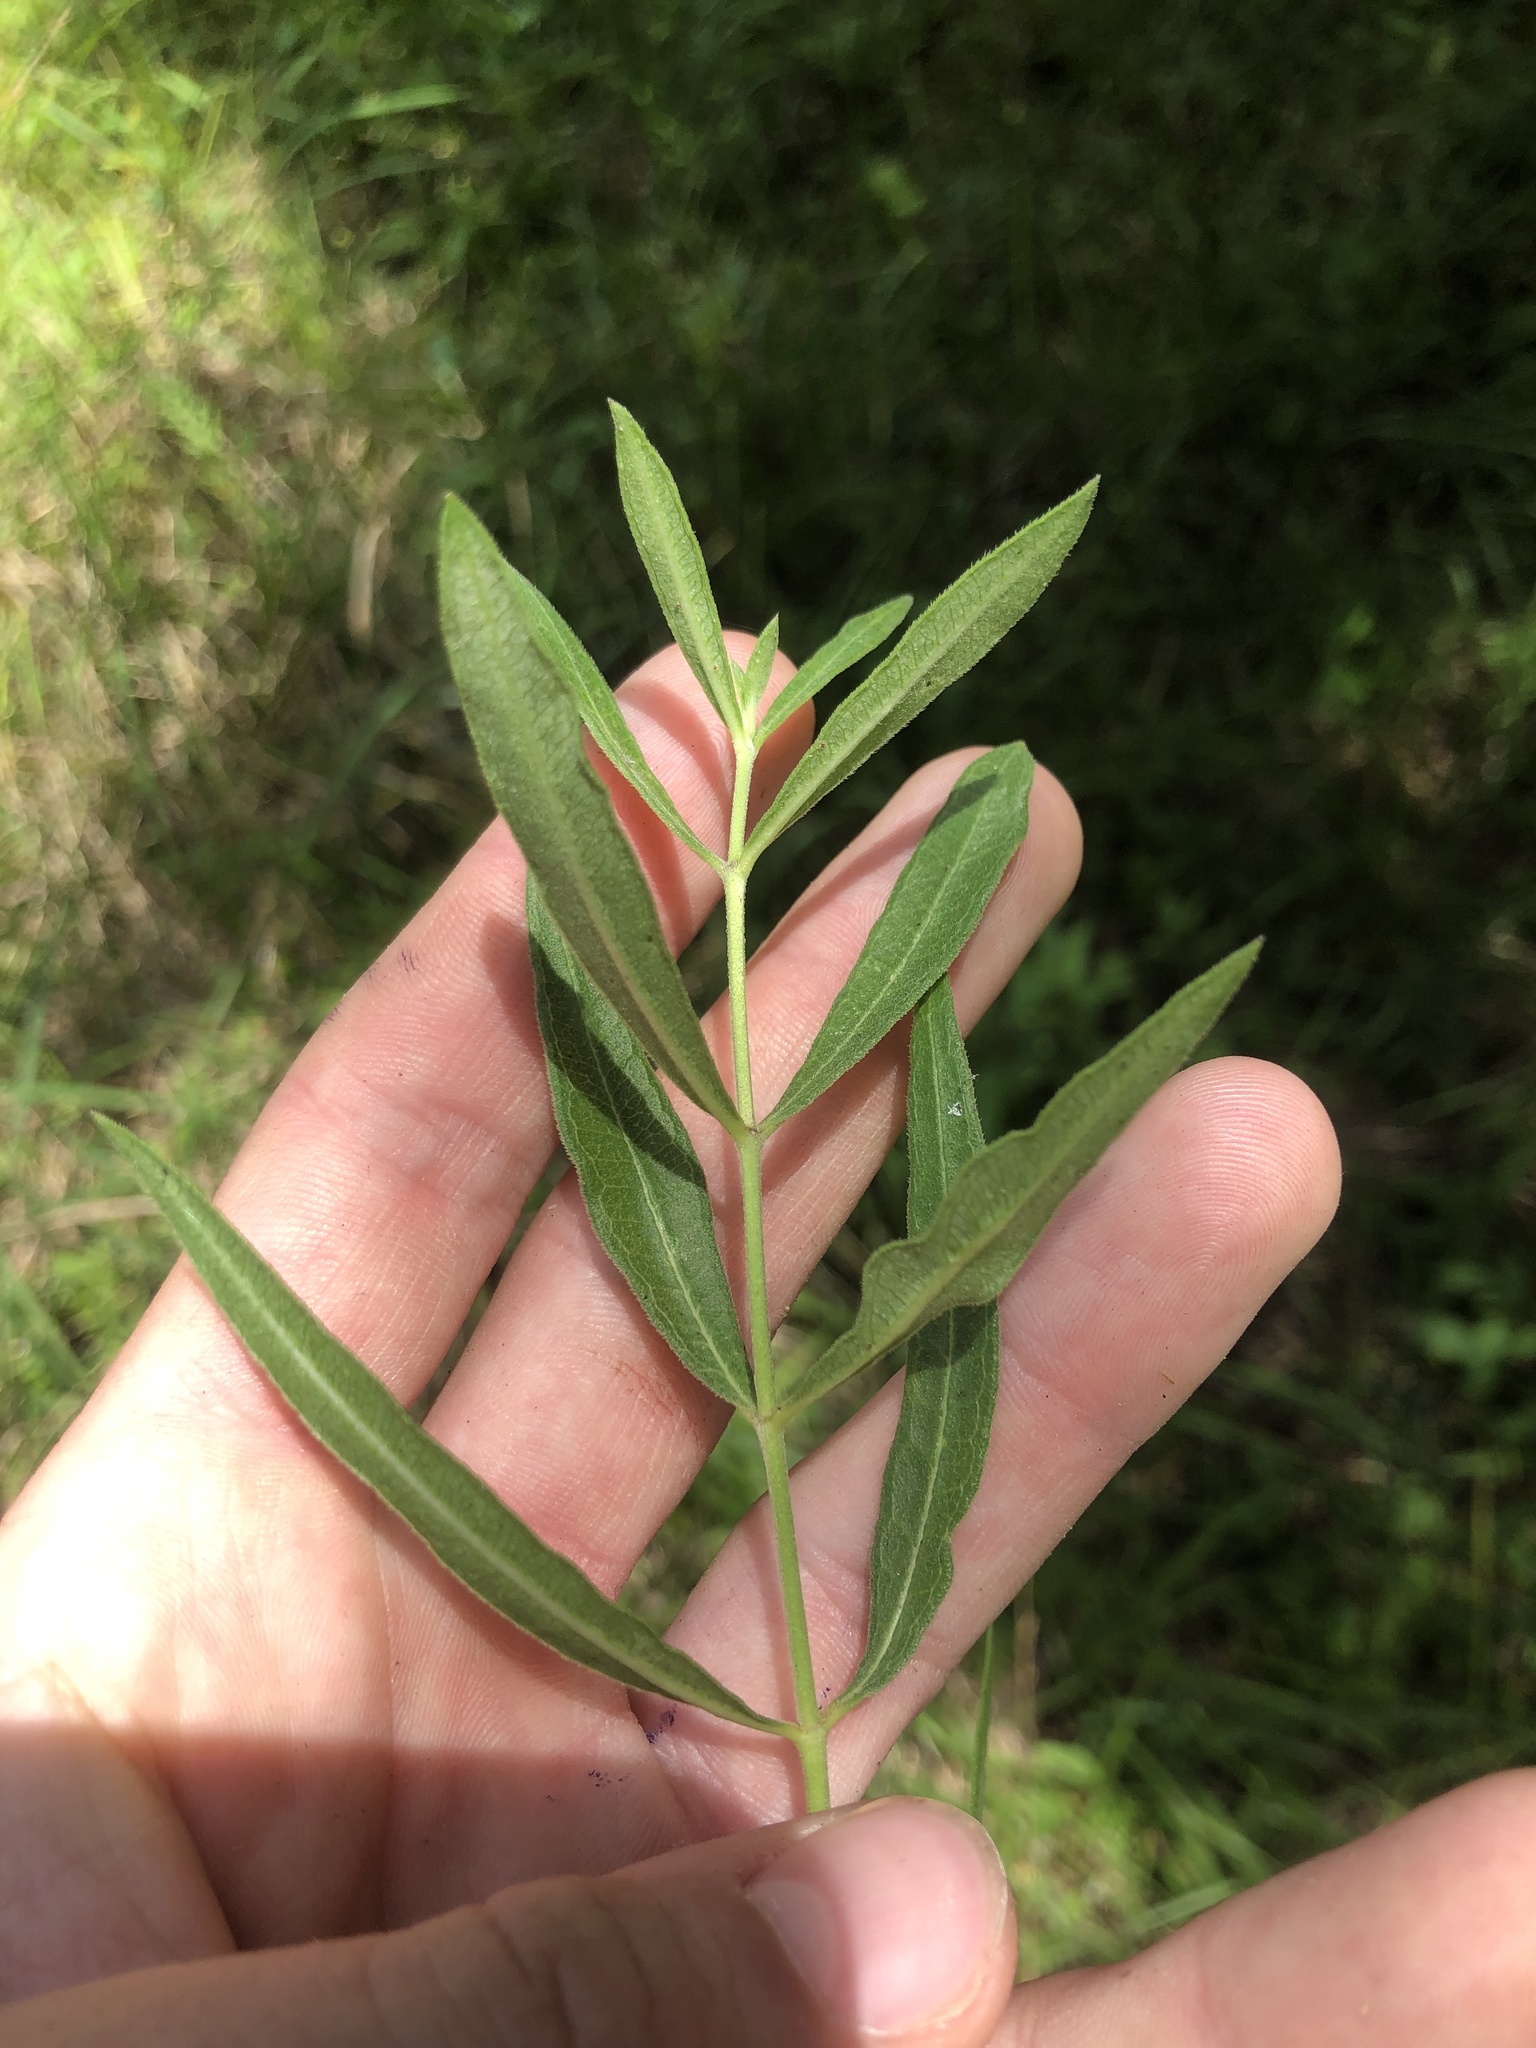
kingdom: Plantae
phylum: Tracheophyta
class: Magnoliopsida
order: Gentianales
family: Apocynaceae
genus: Asclepias
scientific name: Asclepias viridiflora
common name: Green comet milkweed
